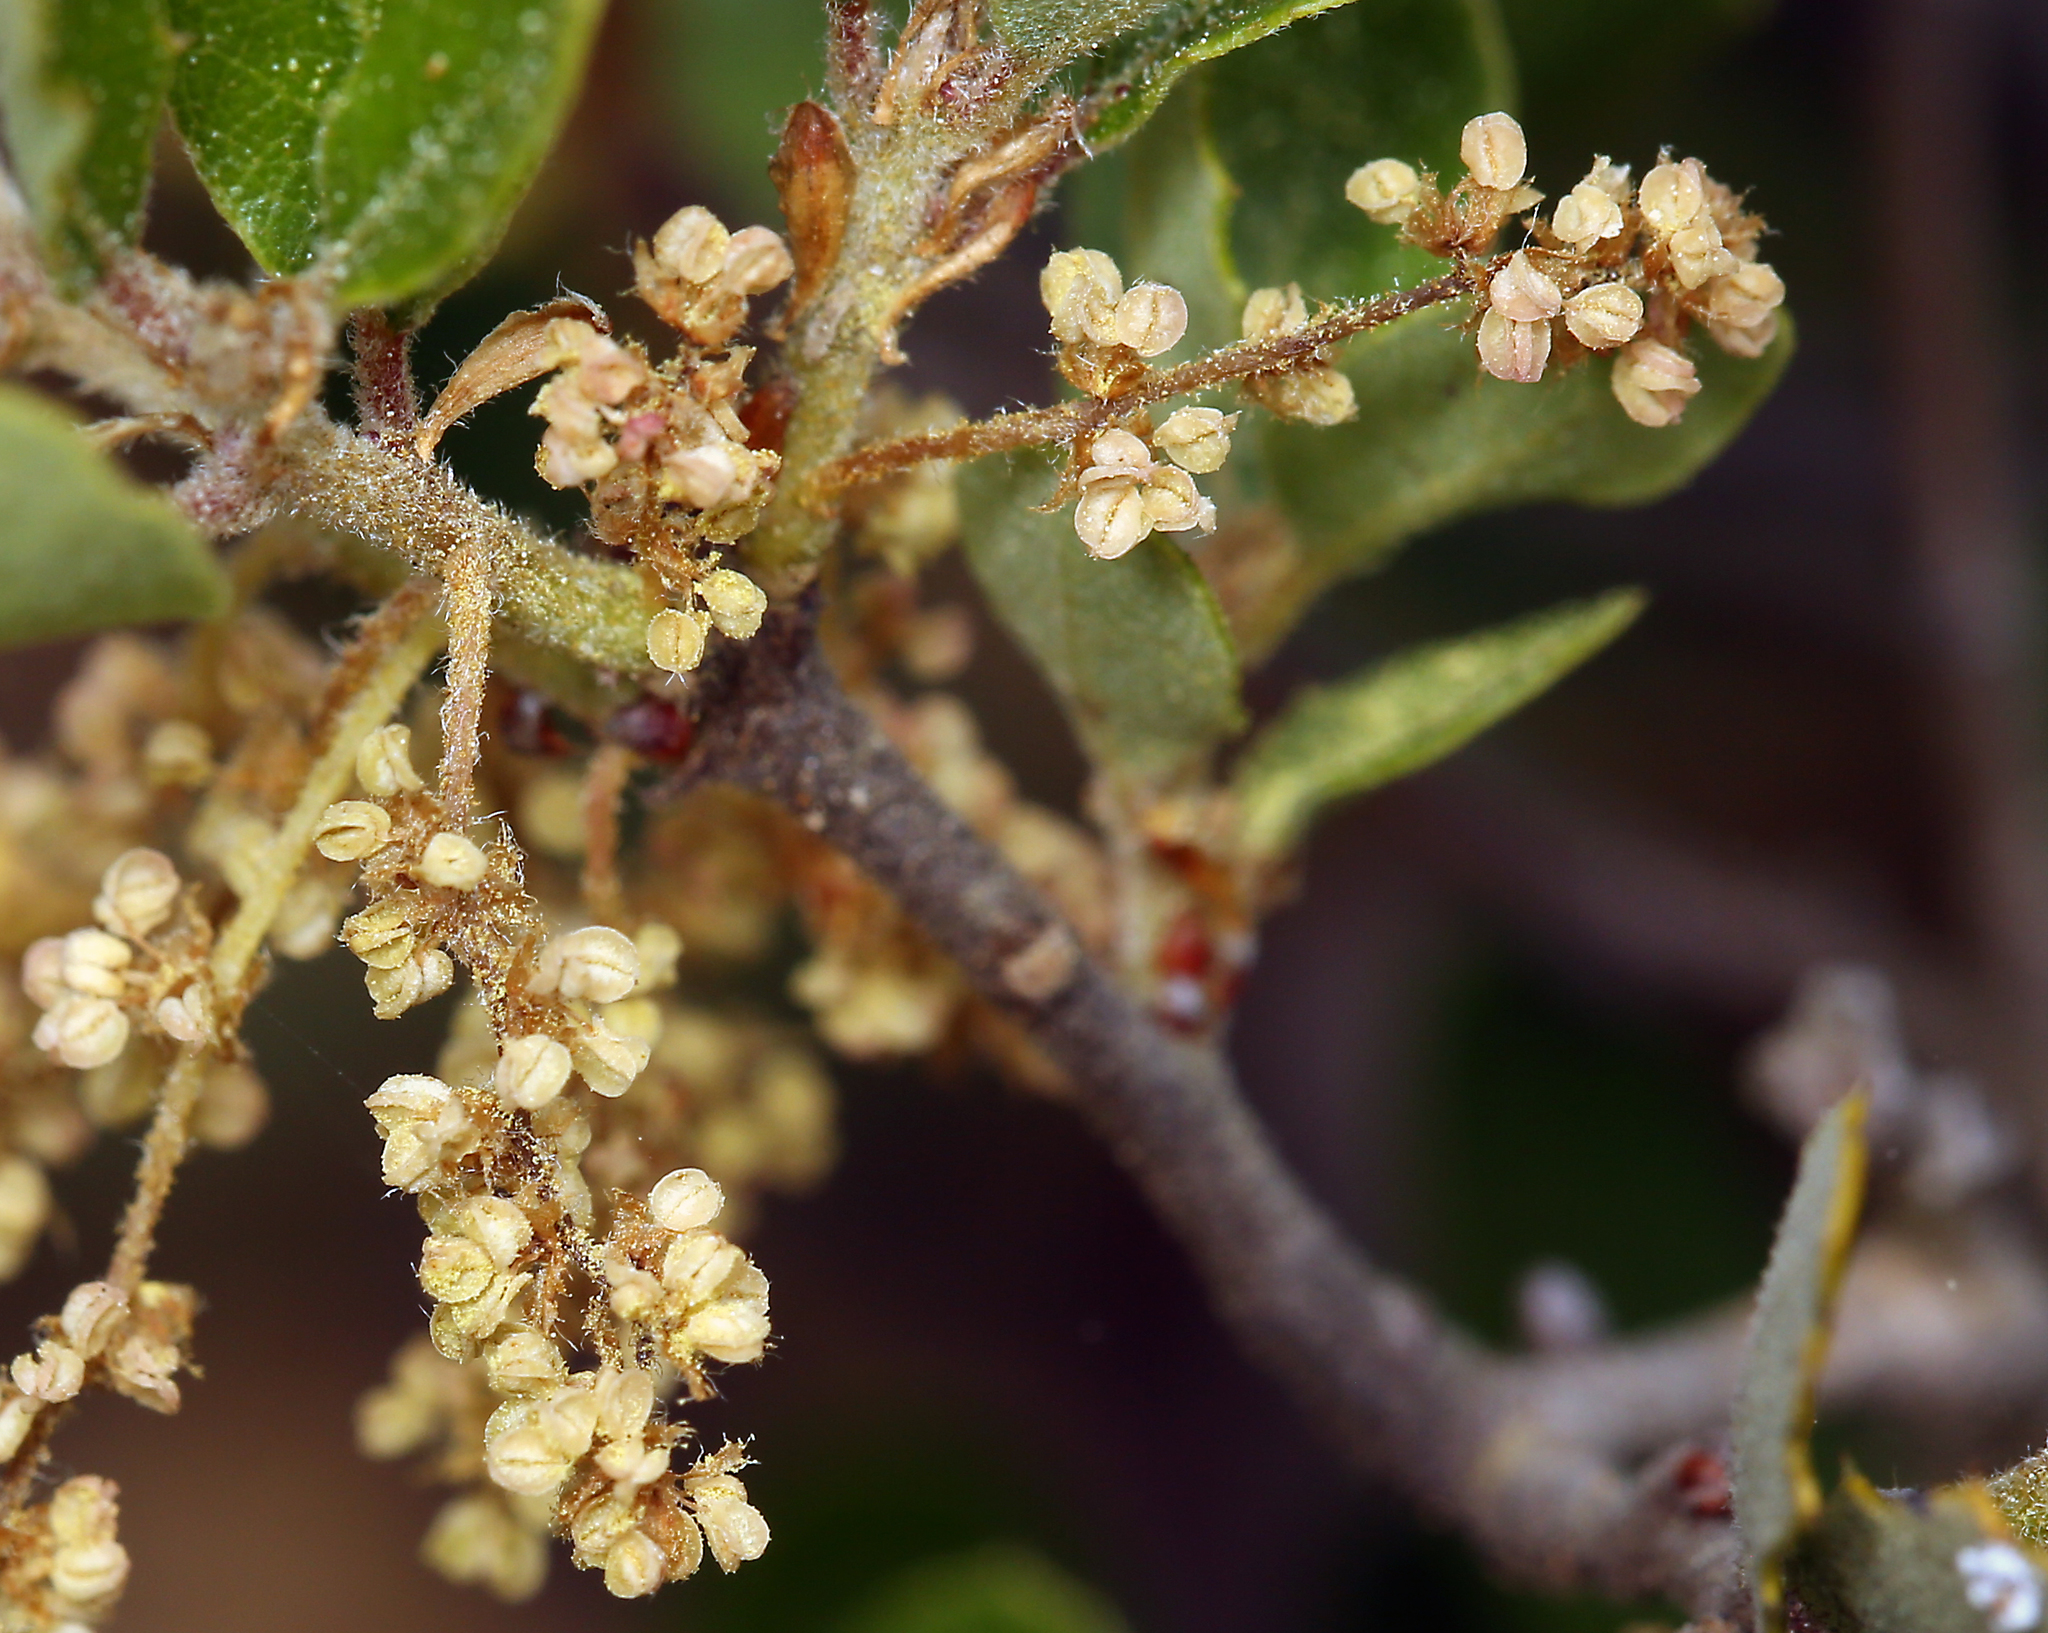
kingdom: Plantae
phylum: Tracheophyta
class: Magnoliopsida
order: Fagales
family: Fagaceae
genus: Quercus
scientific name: Quercus pacifica
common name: Channel island scrub oak
